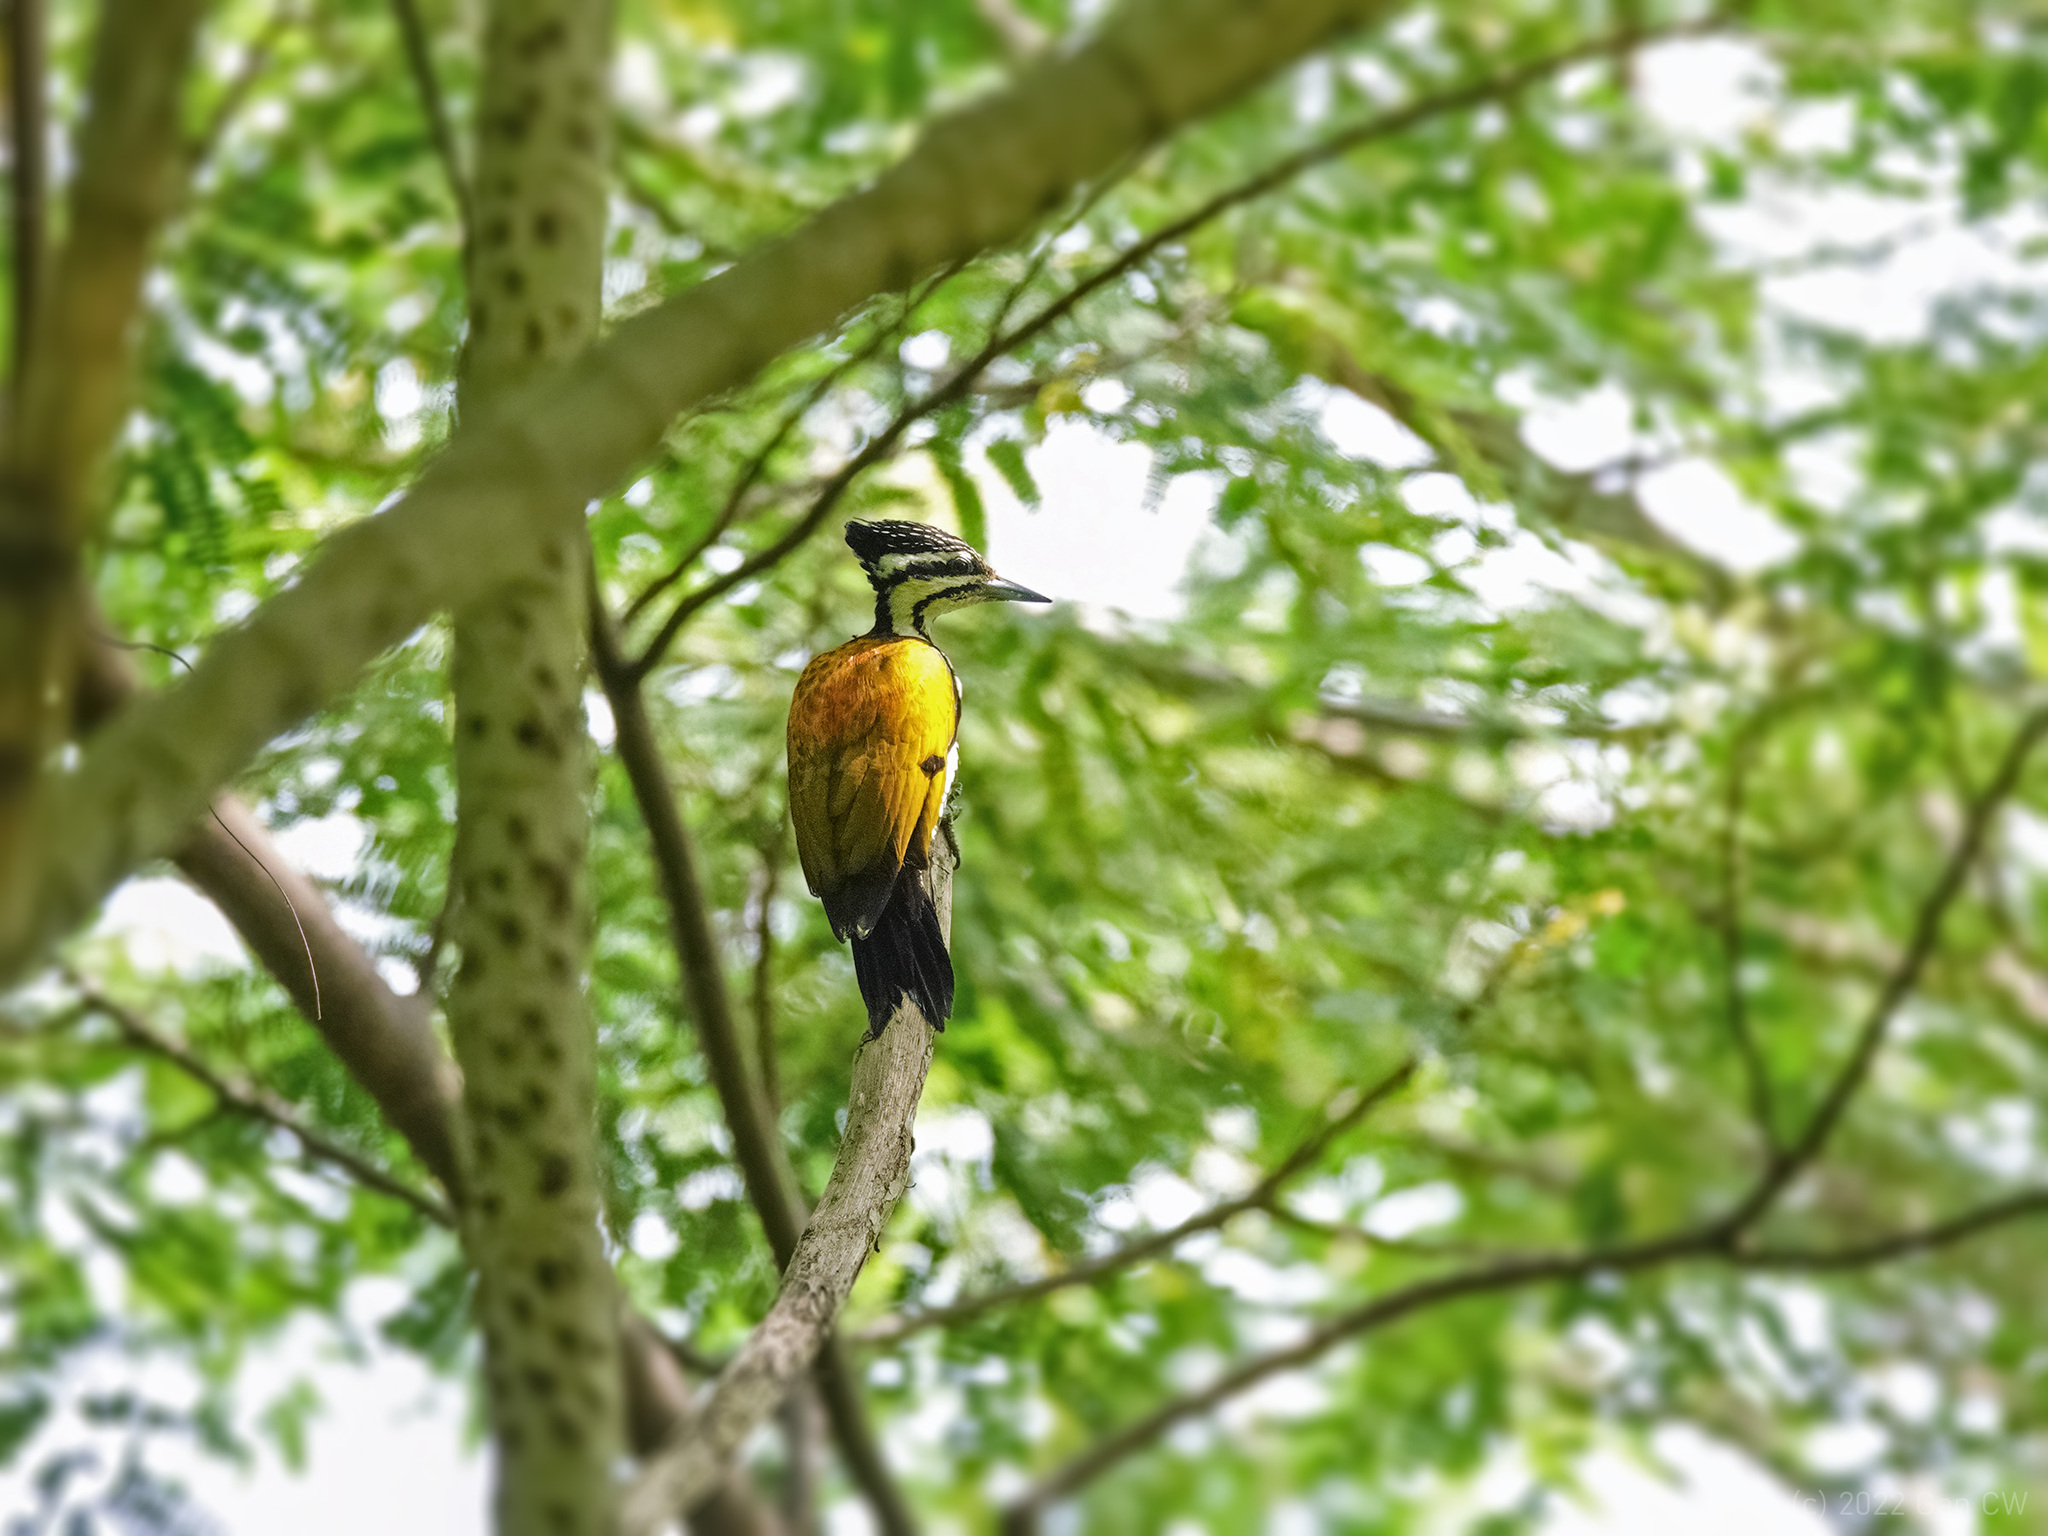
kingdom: Animalia
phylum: Chordata
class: Aves
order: Piciformes
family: Picidae
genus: Dinopium
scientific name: Dinopium javanense
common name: Common flameback
